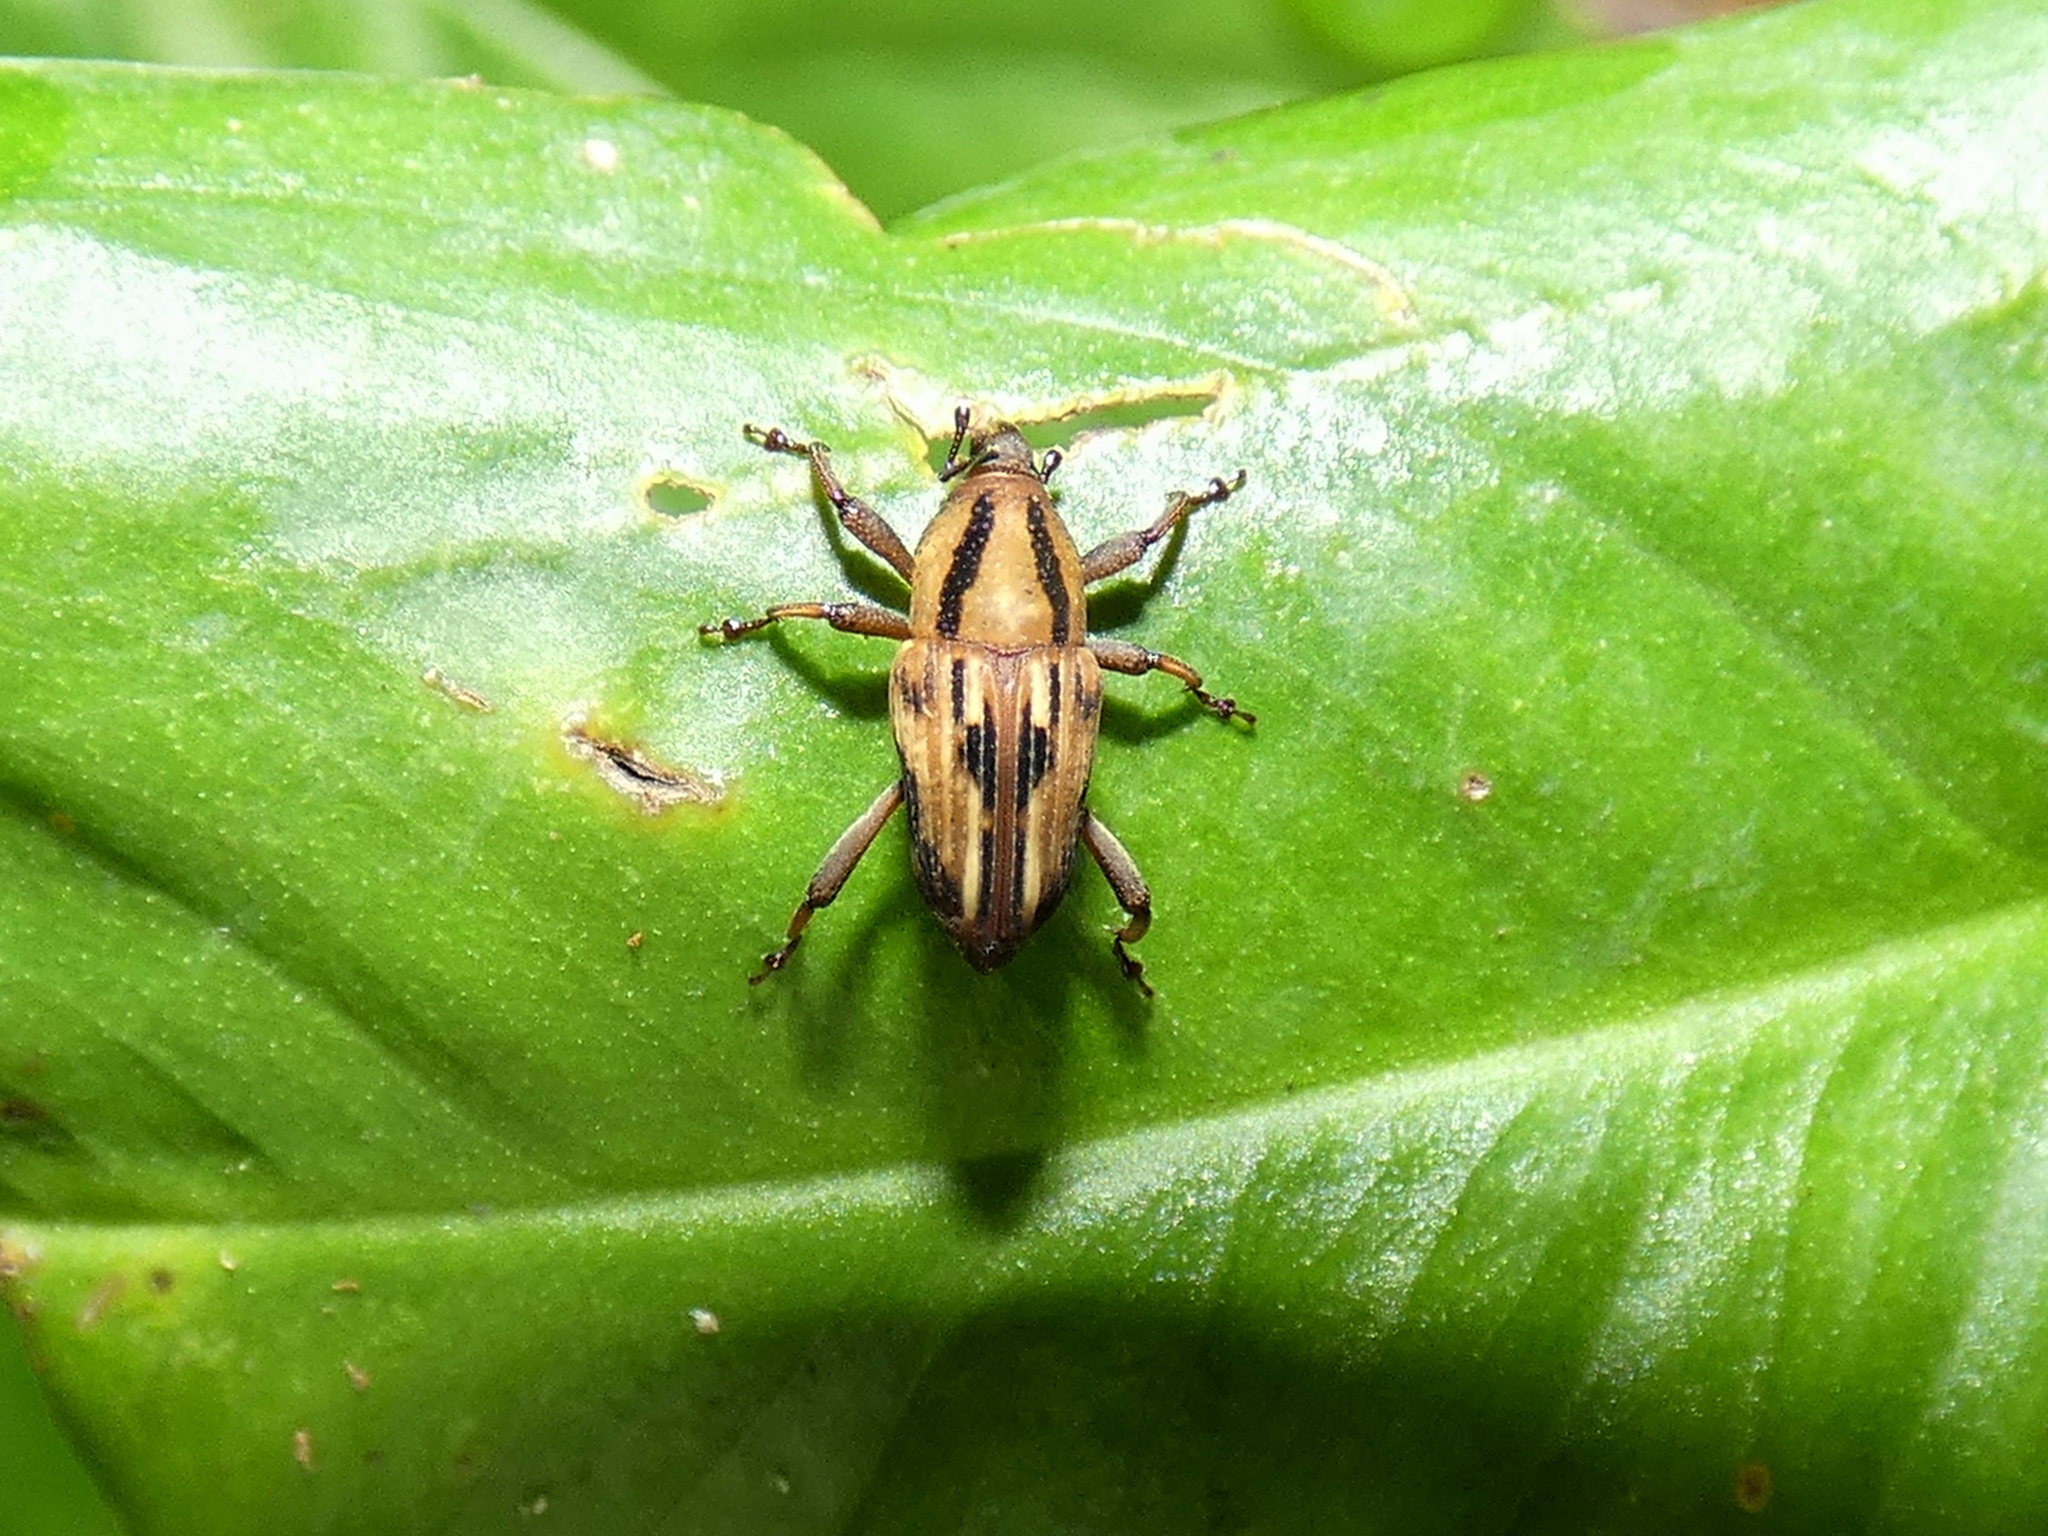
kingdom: Animalia
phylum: Arthropoda
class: Insecta
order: Coleoptera
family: Dryophthoridae
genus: Cactophagus
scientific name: Cactophagus
